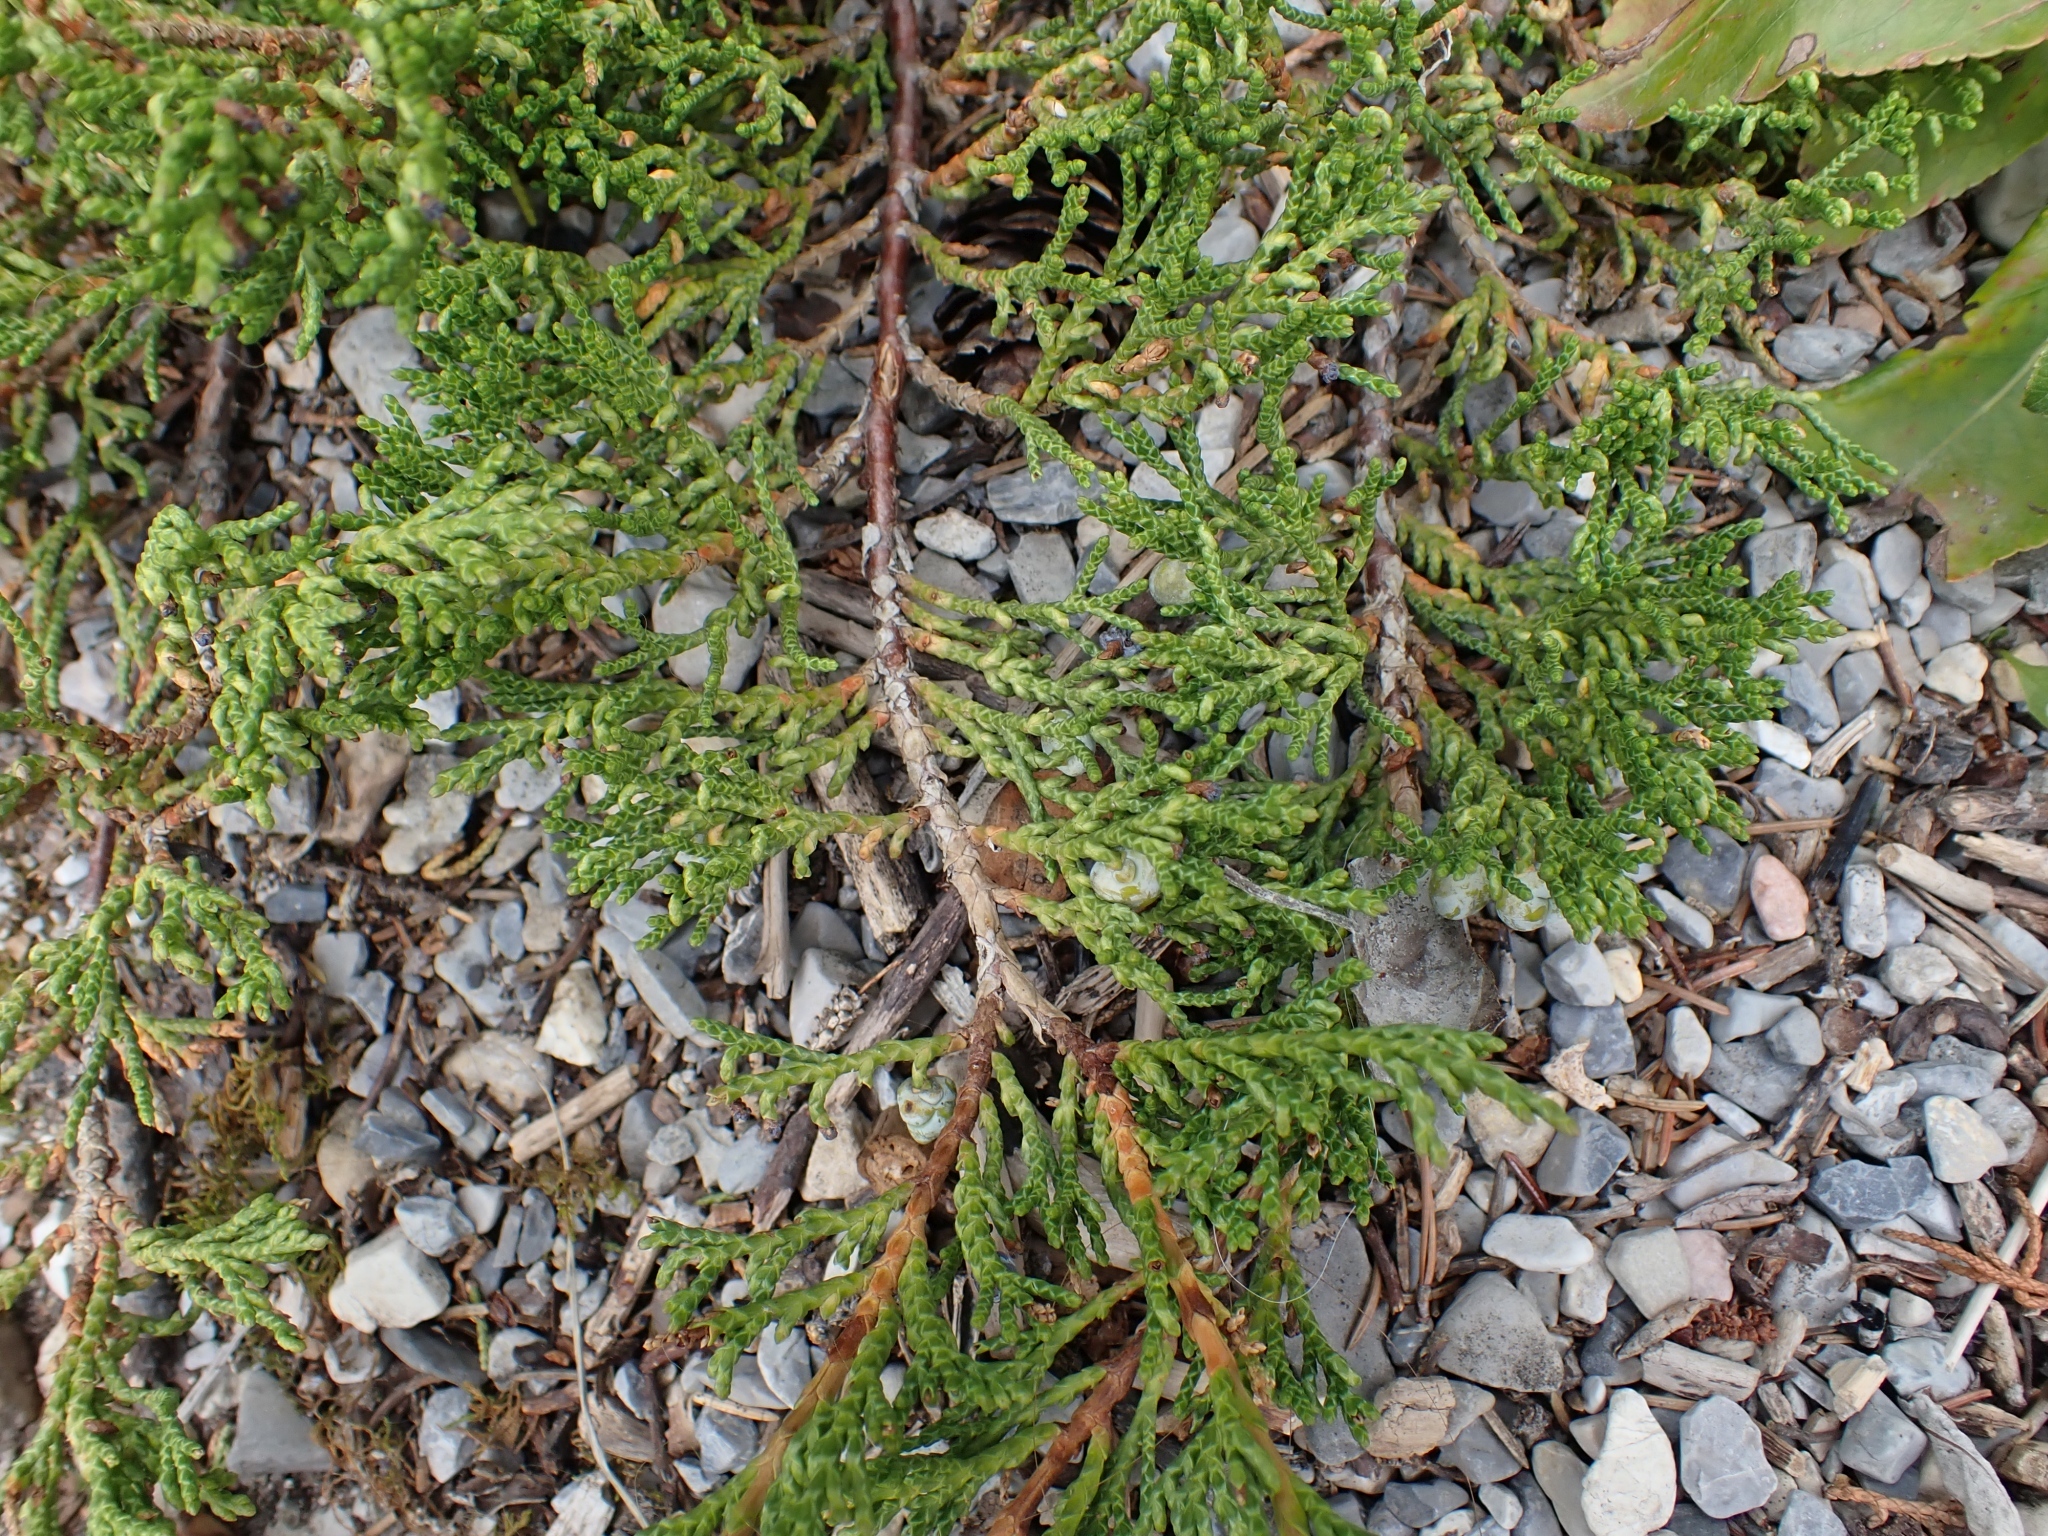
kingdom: Plantae
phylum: Tracheophyta
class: Pinopsida
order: Pinales
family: Cupressaceae
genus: Juniperus
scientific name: Juniperus horizontalis
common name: Creeping juniper
